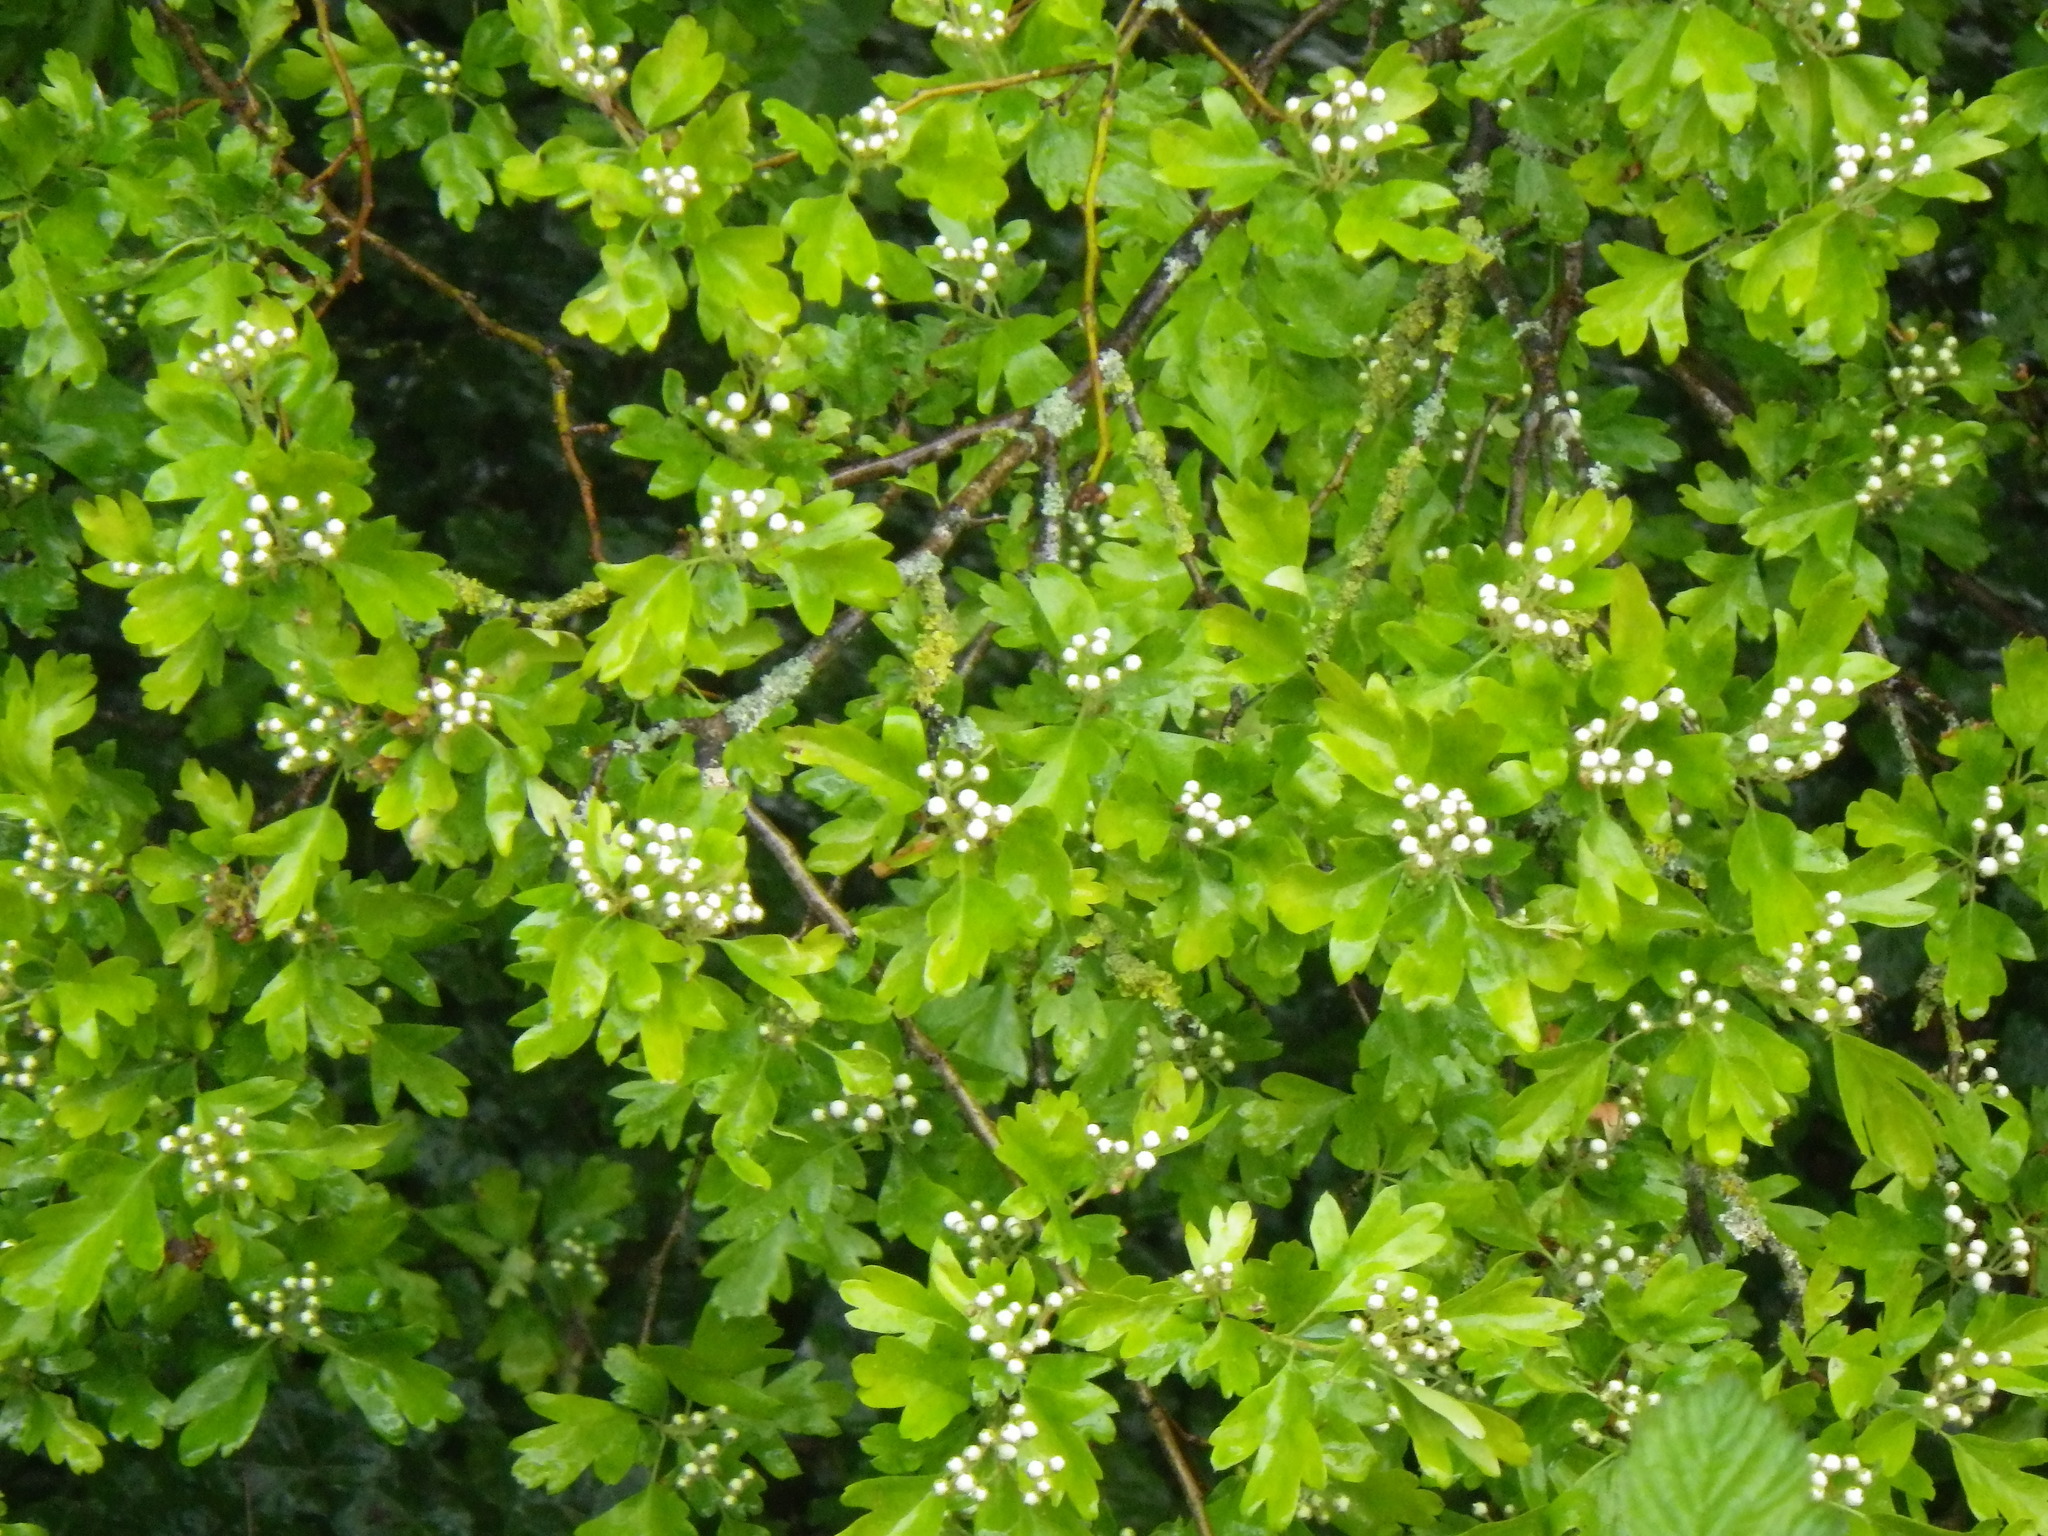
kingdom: Plantae
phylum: Tracheophyta
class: Magnoliopsida
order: Rosales
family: Rosaceae
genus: Crataegus
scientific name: Crataegus monogyna
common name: Hawthorn
